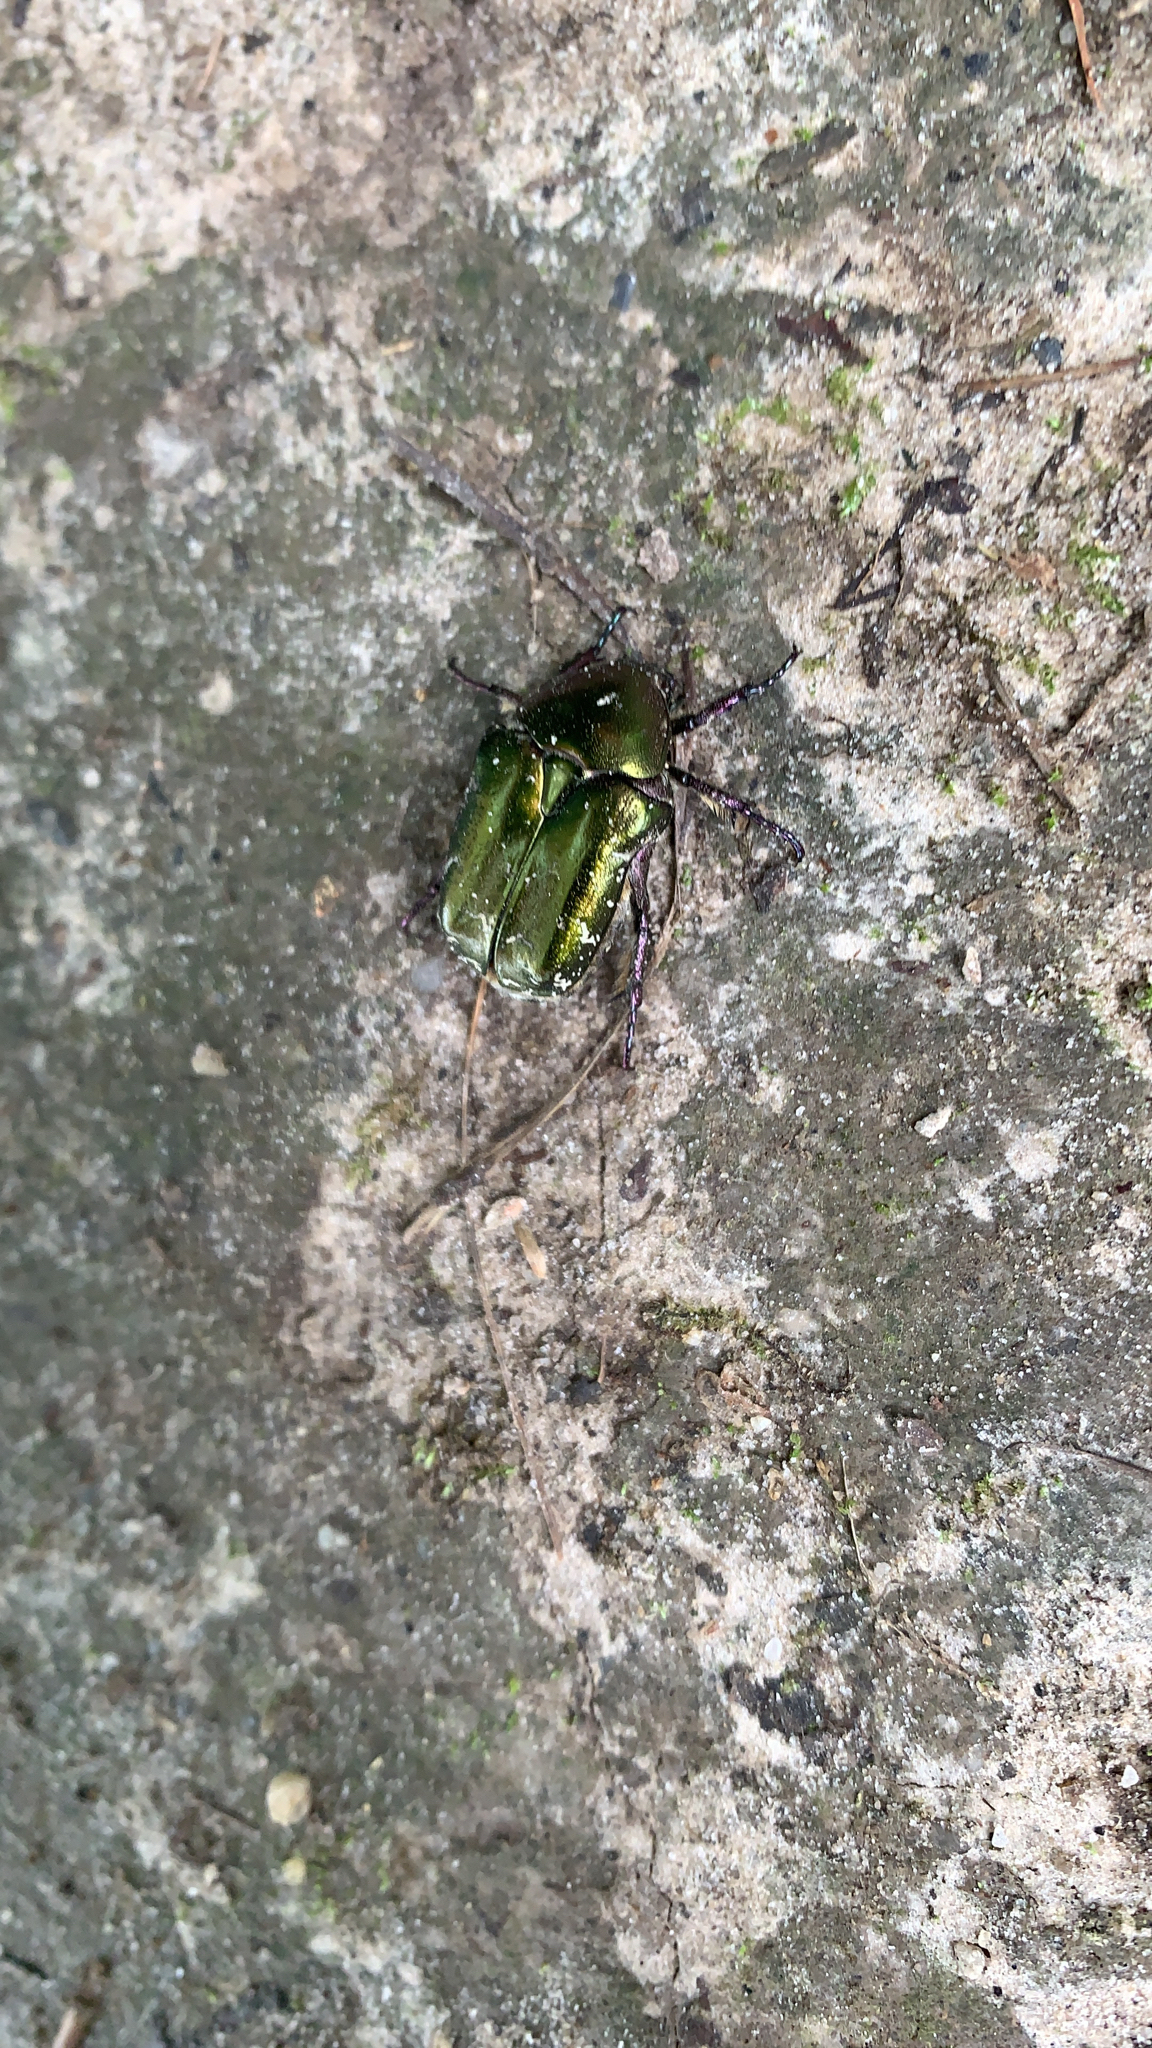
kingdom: Animalia
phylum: Arthropoda
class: Insecta
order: Coleoptera
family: Scarabaeidae
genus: Protaetia
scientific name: Protaetia cuprea
